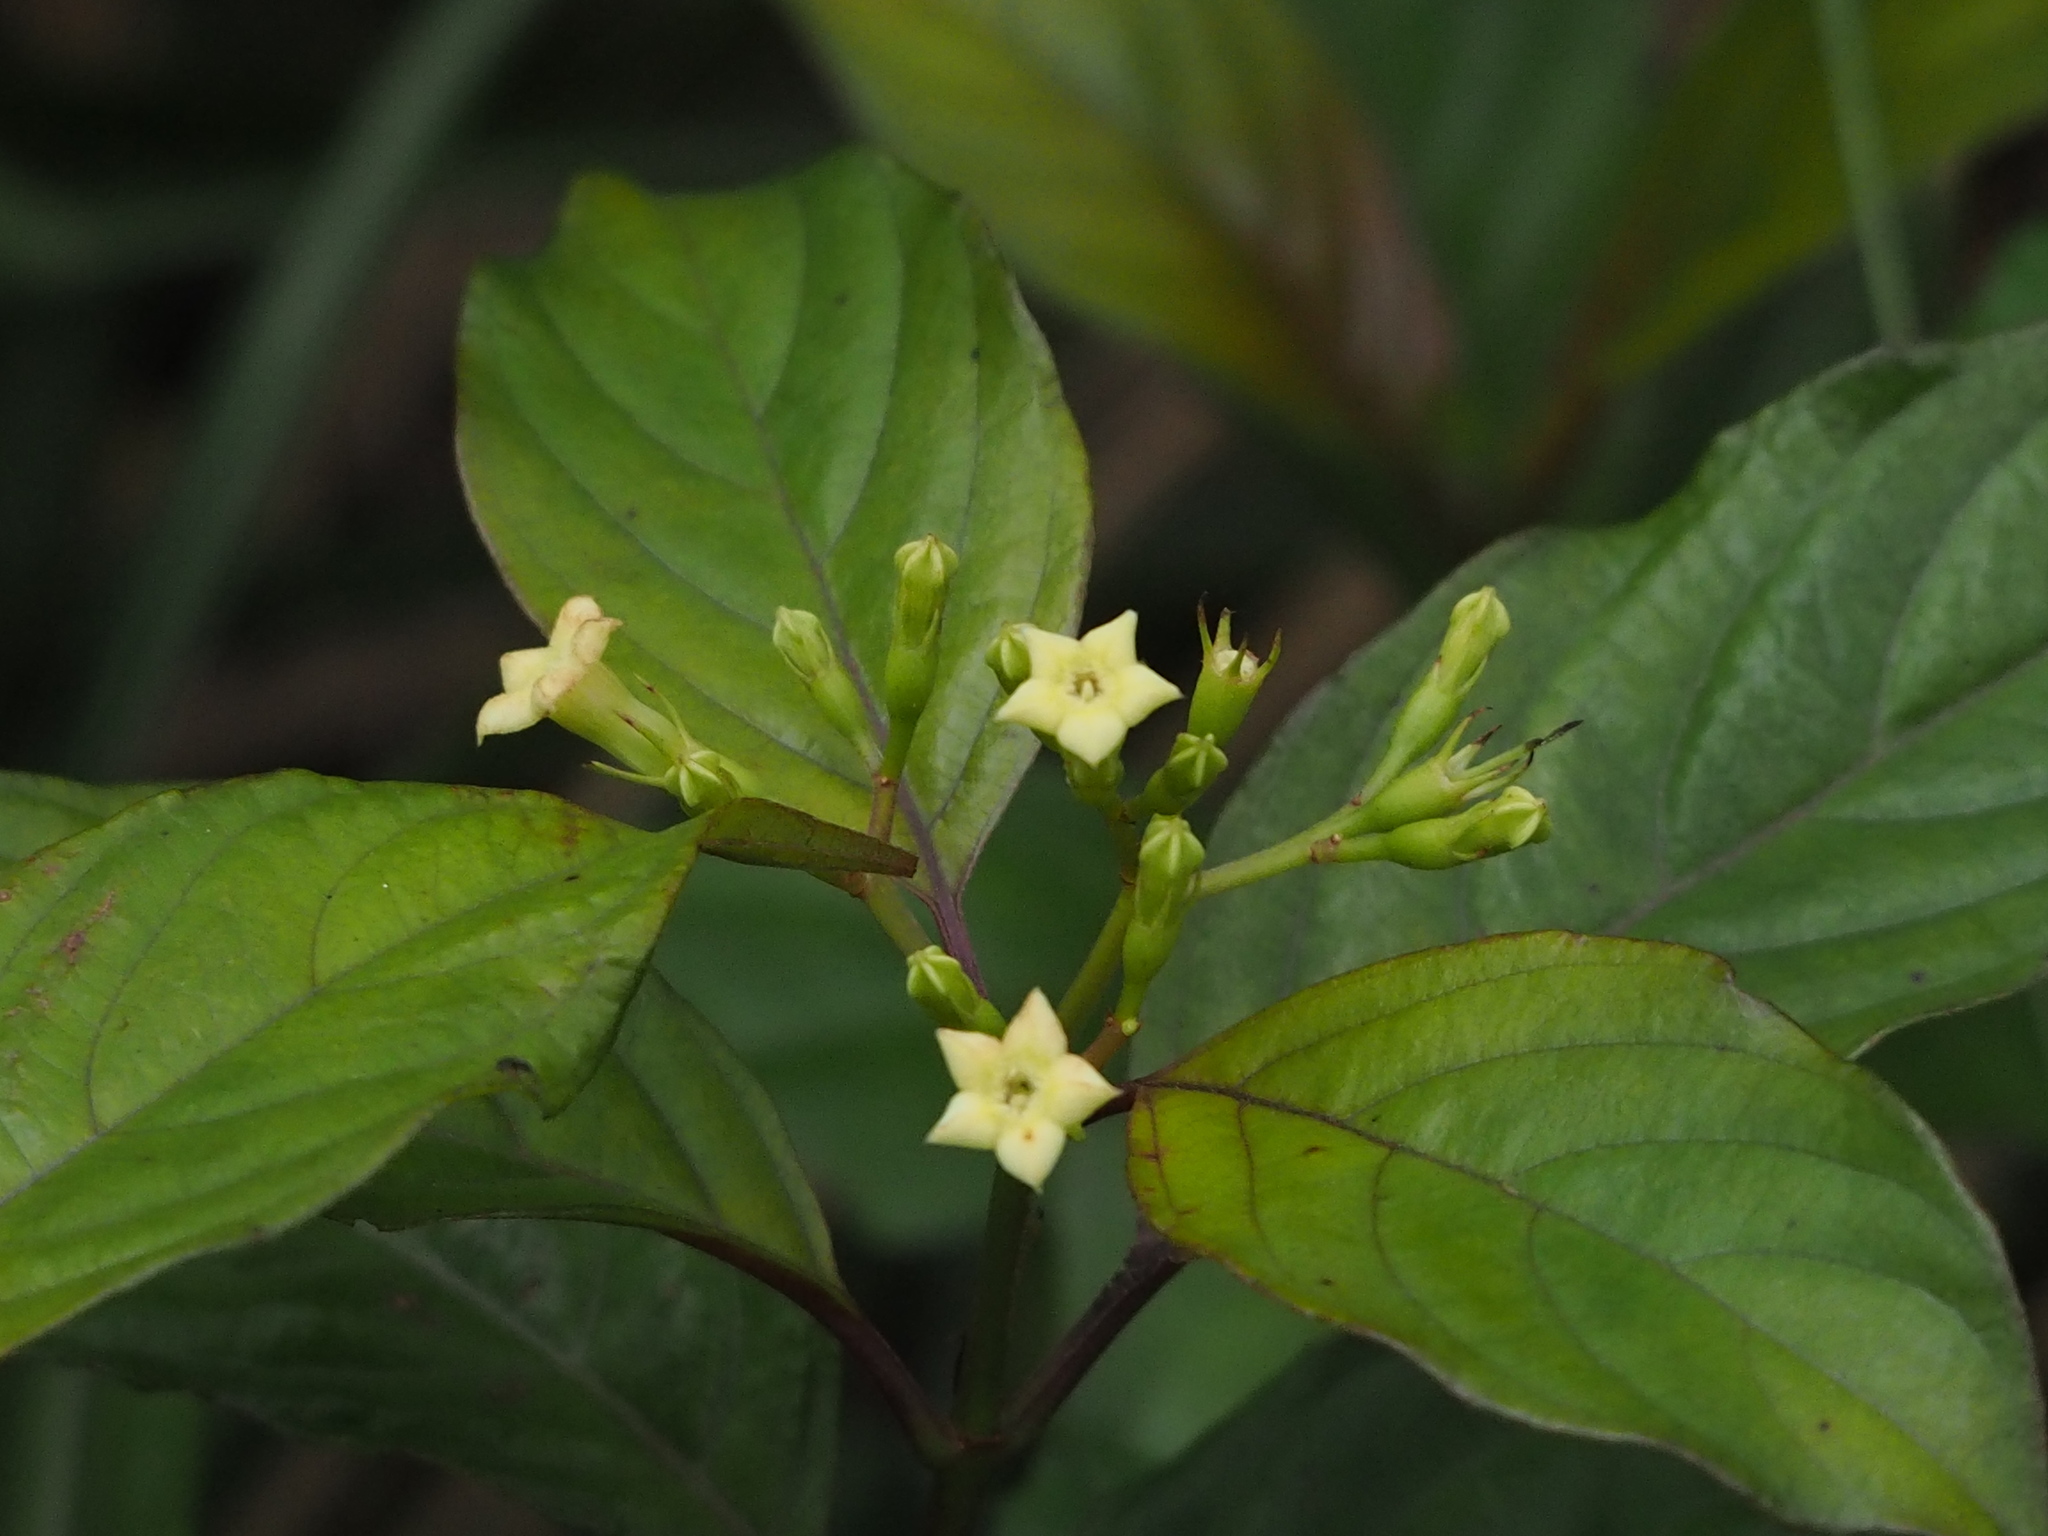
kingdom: Plantae
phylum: Tracheophyta
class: Magnoliopsida
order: Gentianales
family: Rubiaceae
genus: Mussaenda
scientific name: Mussaenda parviflora
